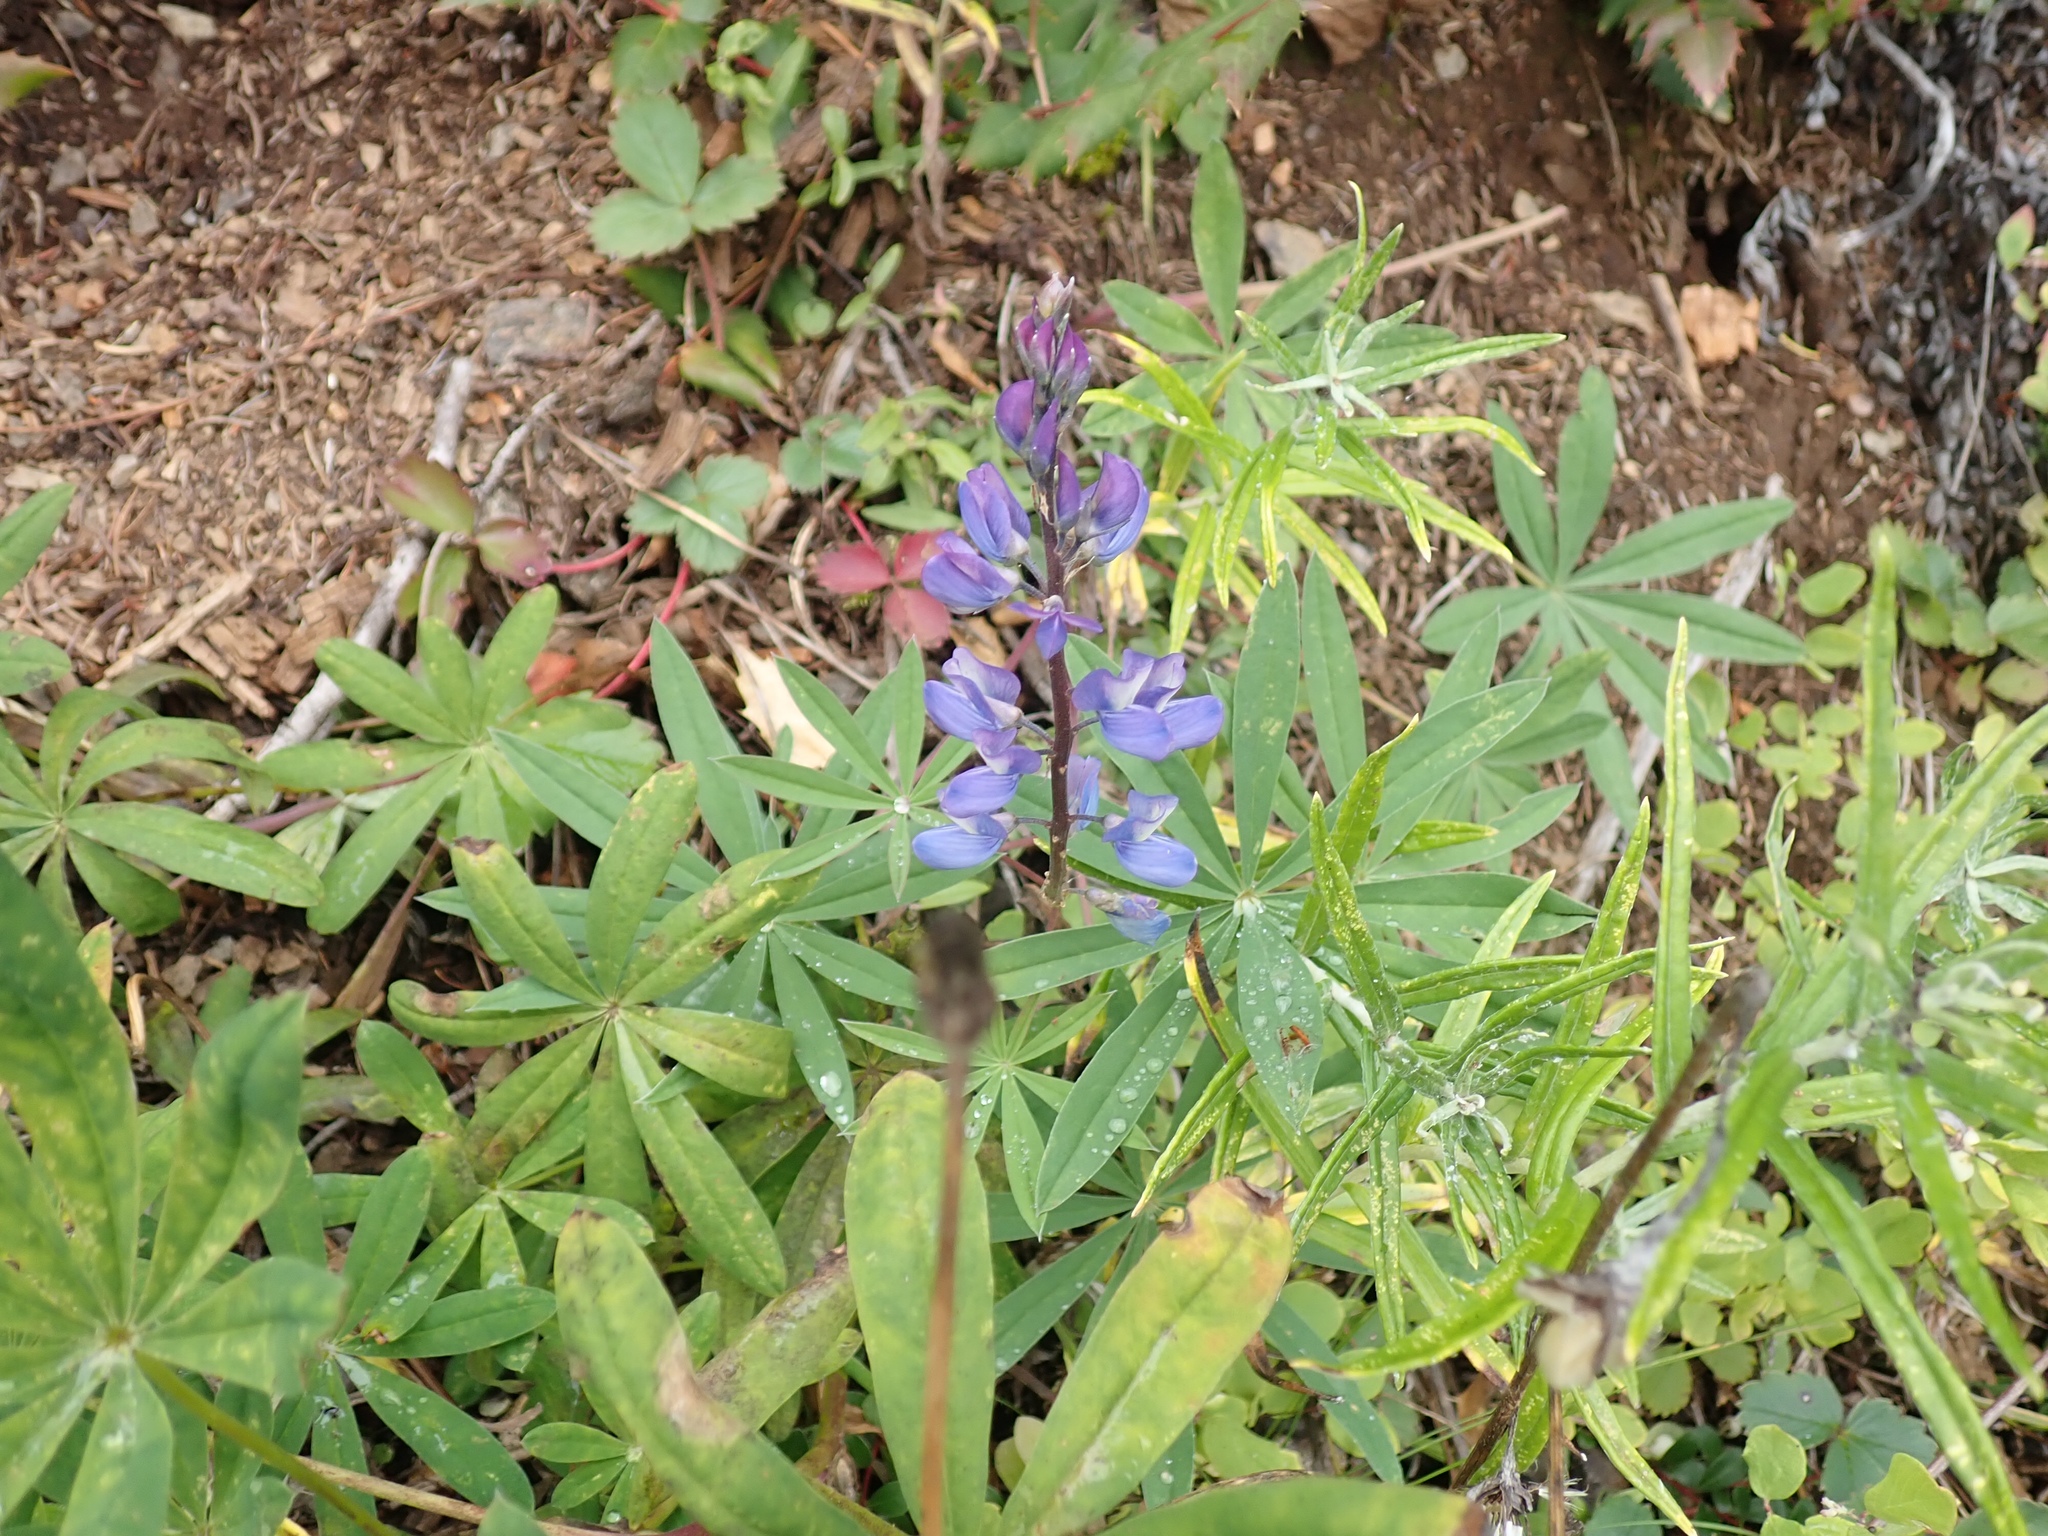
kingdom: Plantae
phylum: Tracheophyta
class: Magnoliopsida
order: Fabales
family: Fabaceae
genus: Lupinus
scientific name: Lupinus latifolius
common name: Broad-leaved lupine
